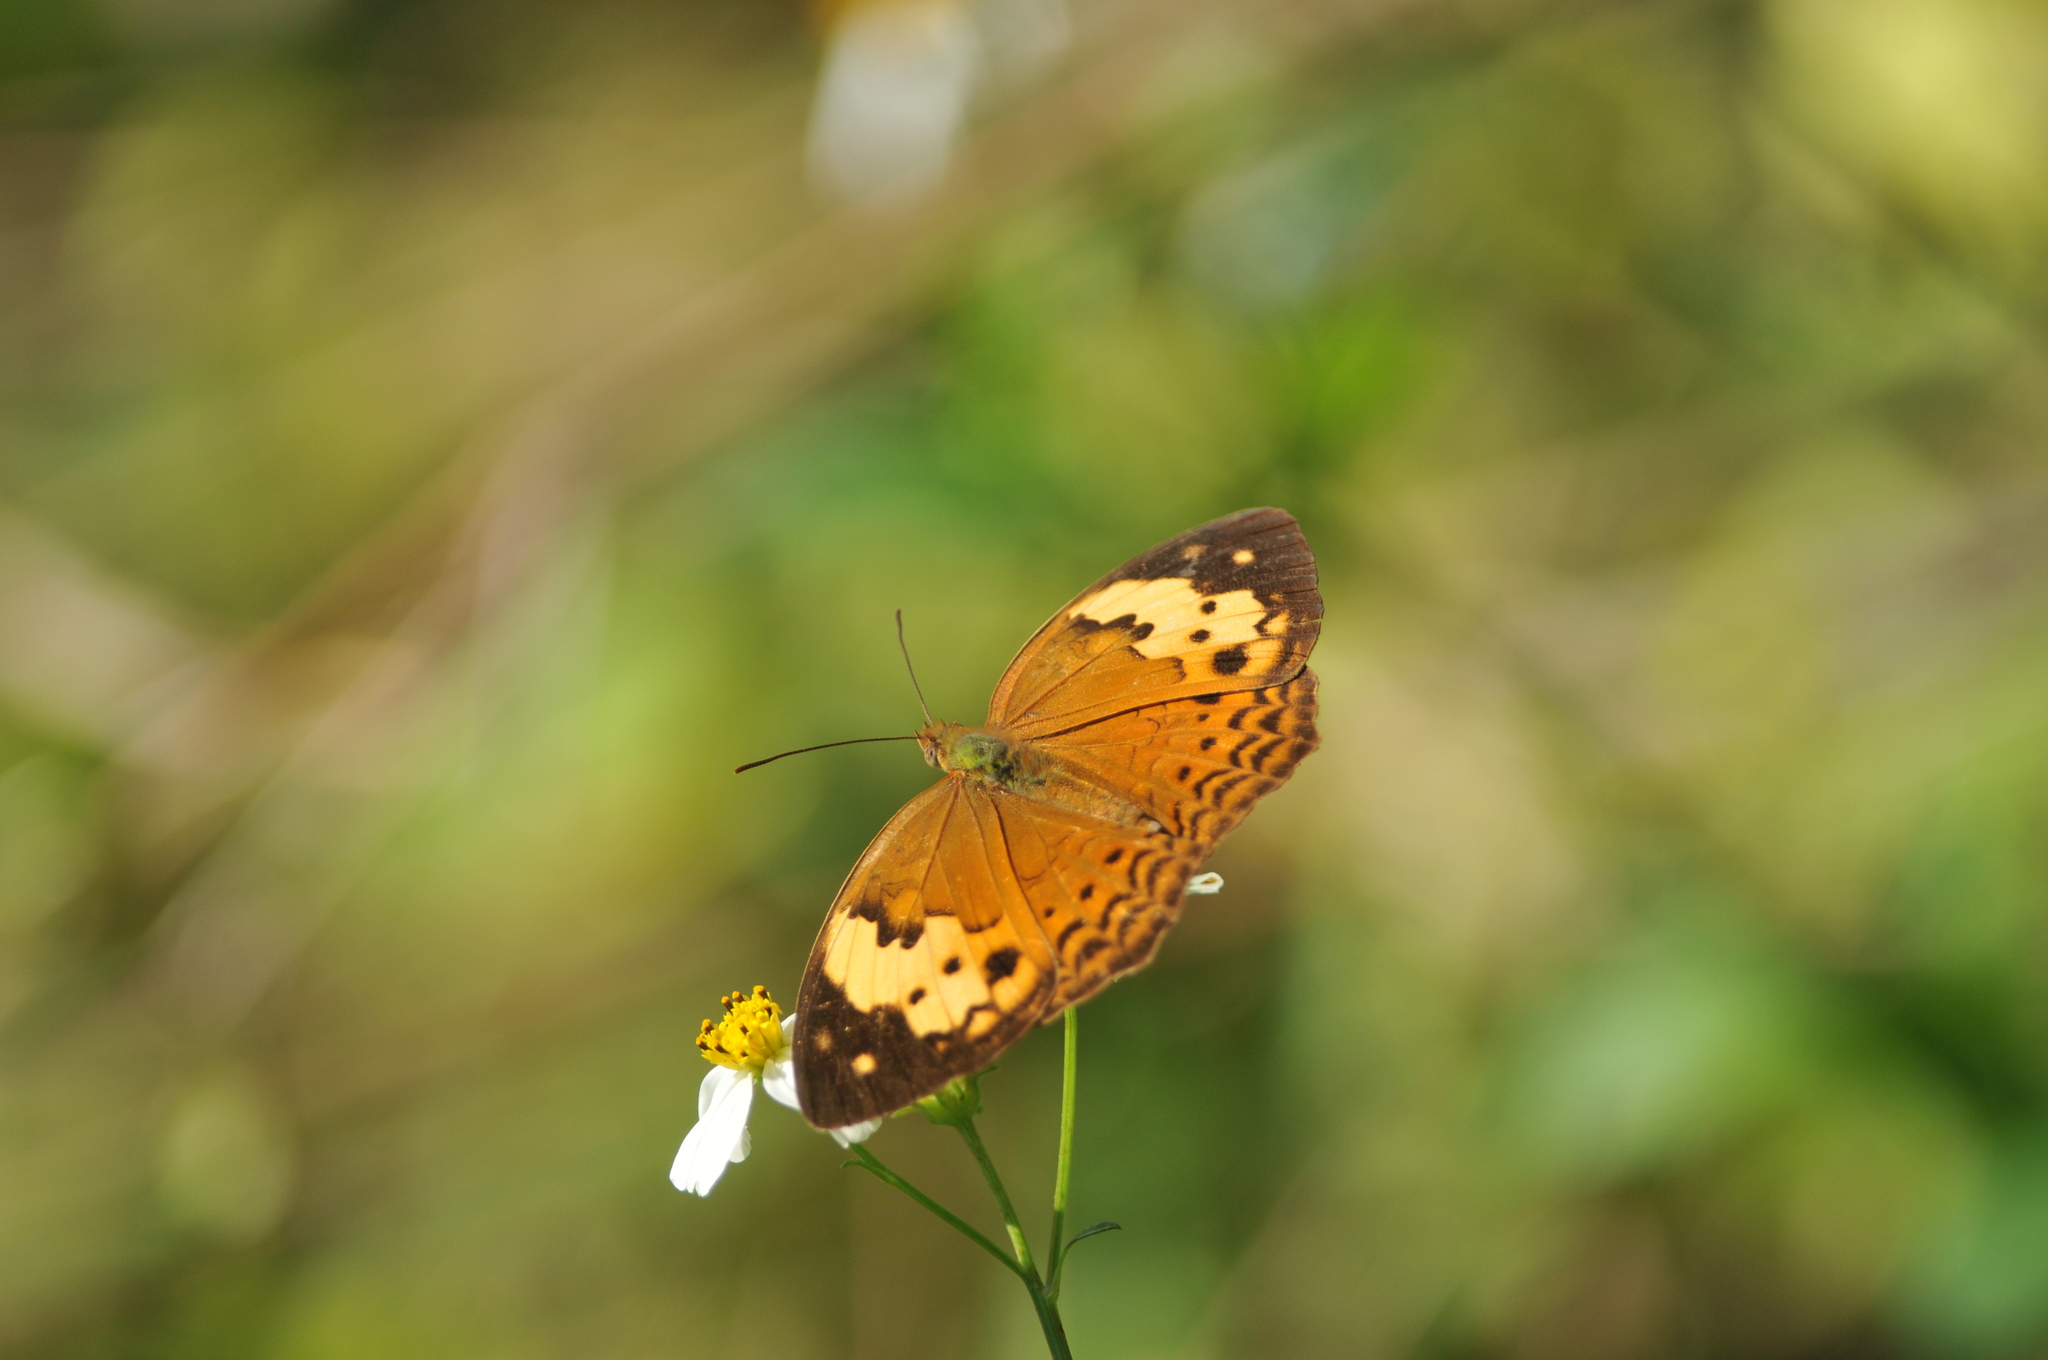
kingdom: Animalia
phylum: Arthropoda
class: Insecta
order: Lepidoptera
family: Nymphalidae
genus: Cupha
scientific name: Cupha erymanthis
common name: Rustic
